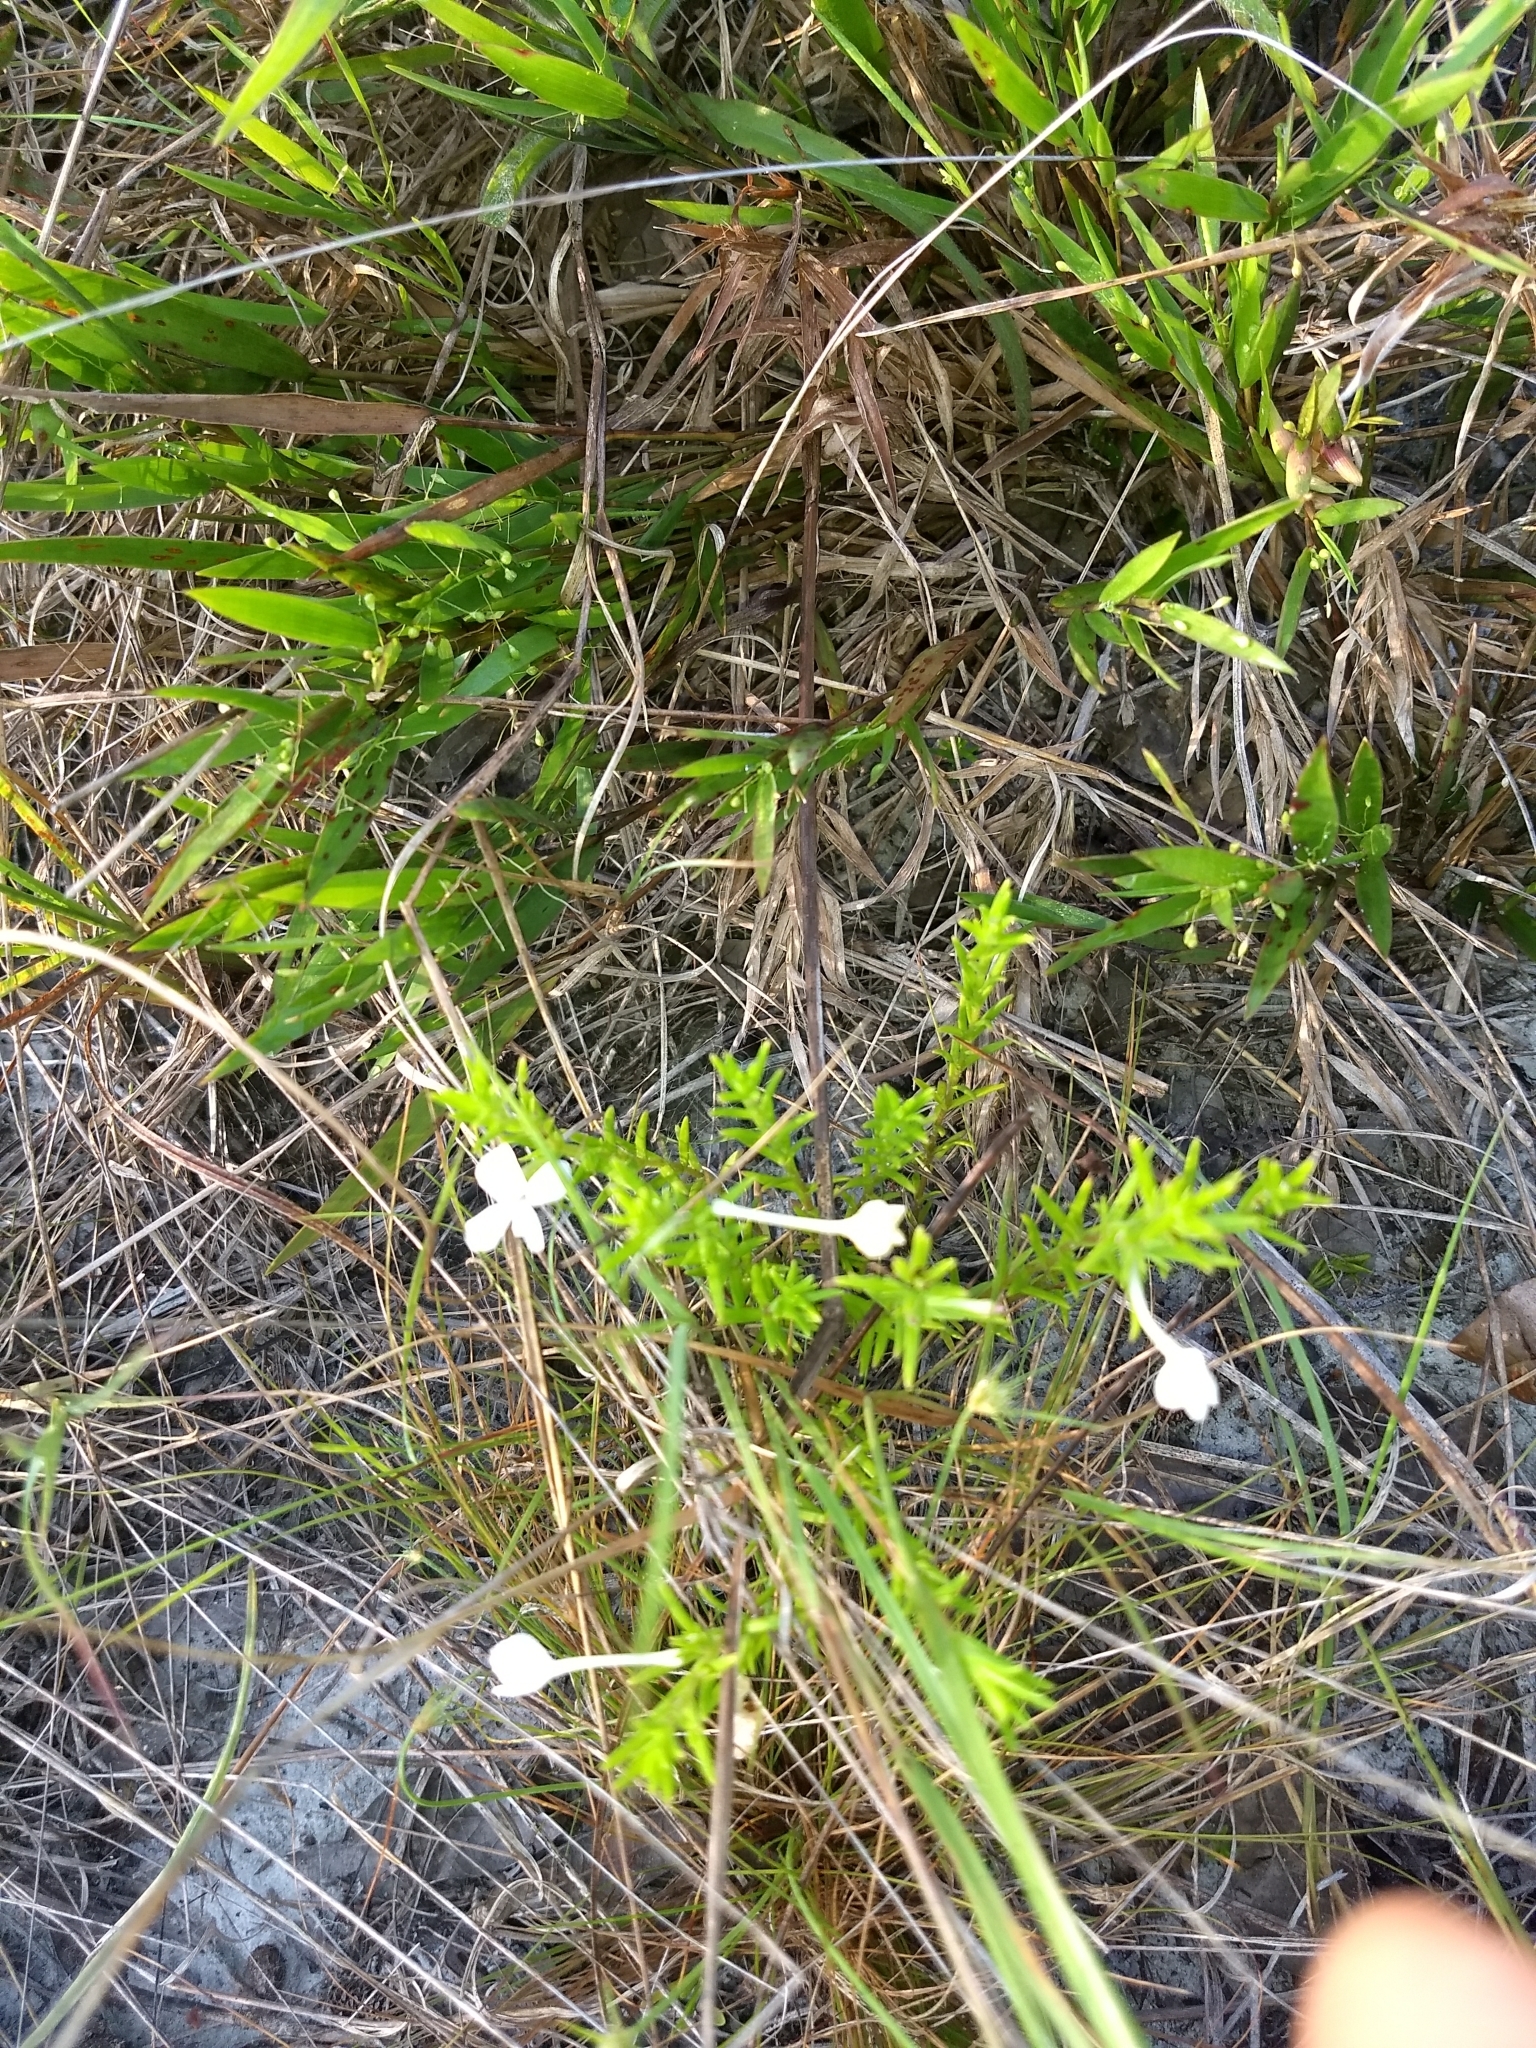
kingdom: Plantae
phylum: Tracheophyta
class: Magnoliopsida
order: Lamiales
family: Plantaginaceae
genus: Gratiola
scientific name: Gratiola hispida
